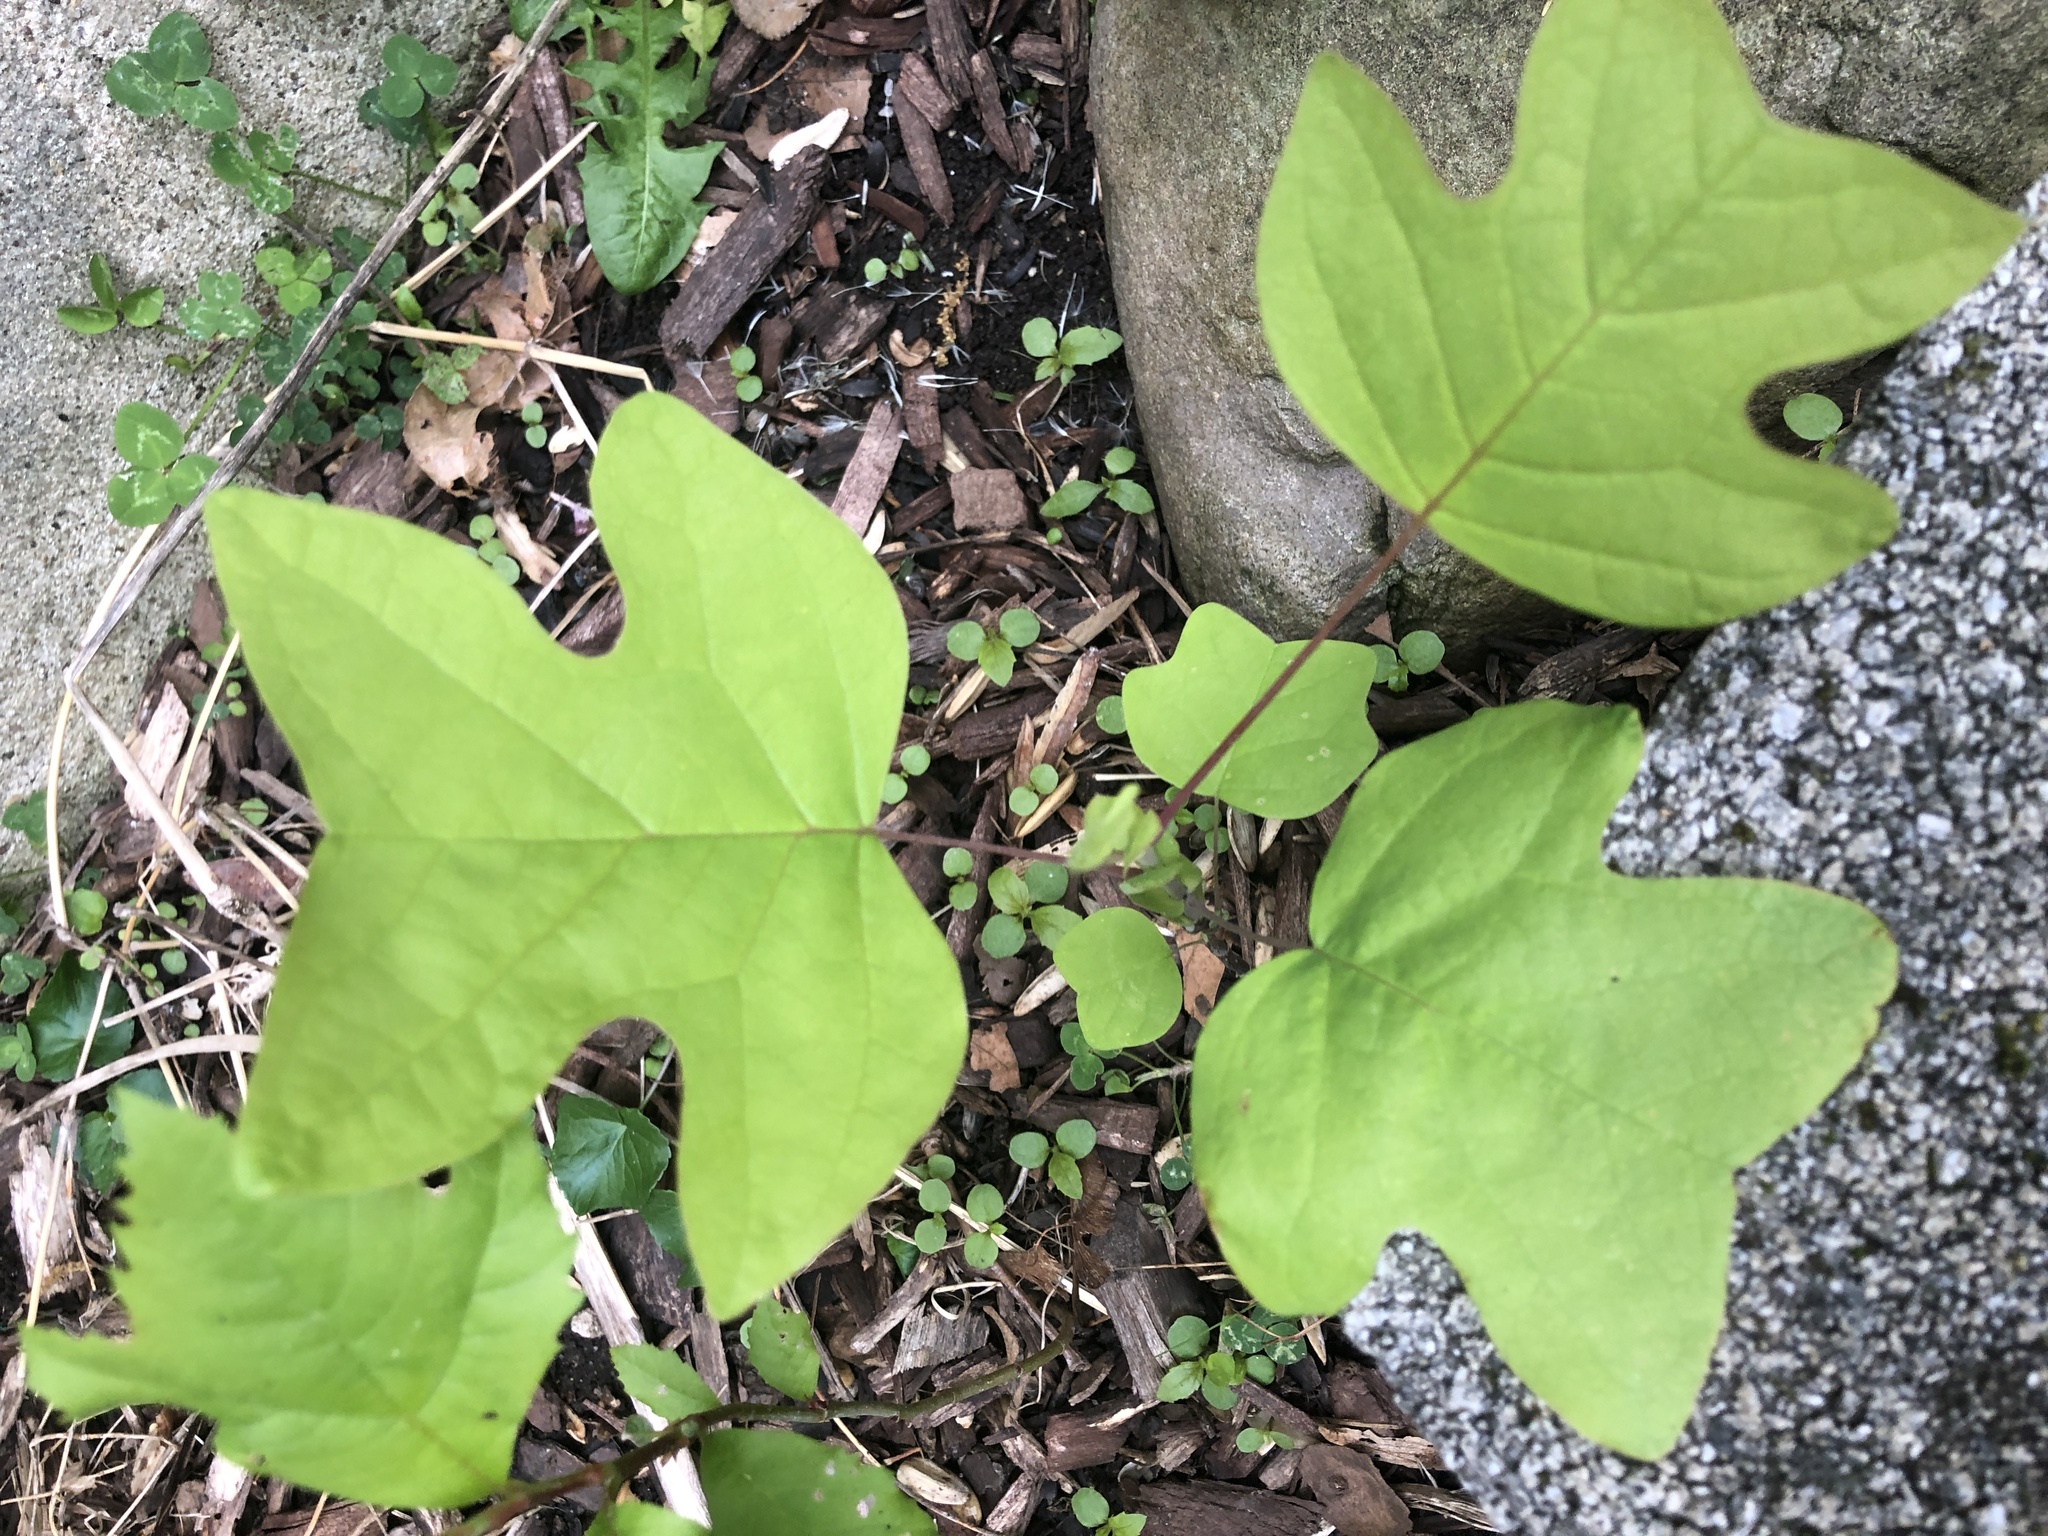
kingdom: Plantae
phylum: Tracheophyta
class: Magnoliopsida
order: Magnoliales
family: Magnoliaceae
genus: Liriodendron
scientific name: Liriodendron tulipifera
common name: Tulip tree
